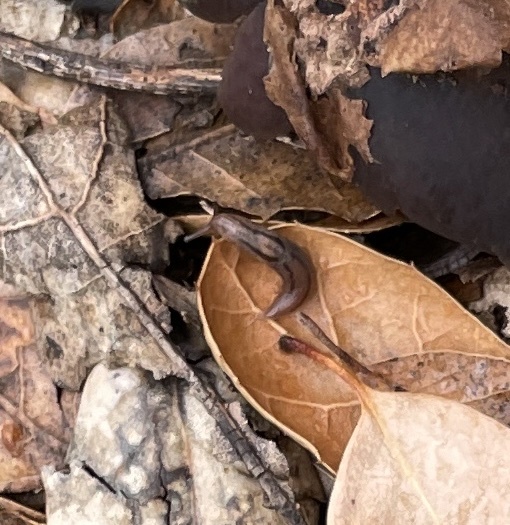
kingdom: Animalia
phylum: Mollusca
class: Gastropoda
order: Stylommatophora
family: Limacidae
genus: Ambigolimax
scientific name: Ambigolimax parvipenis
